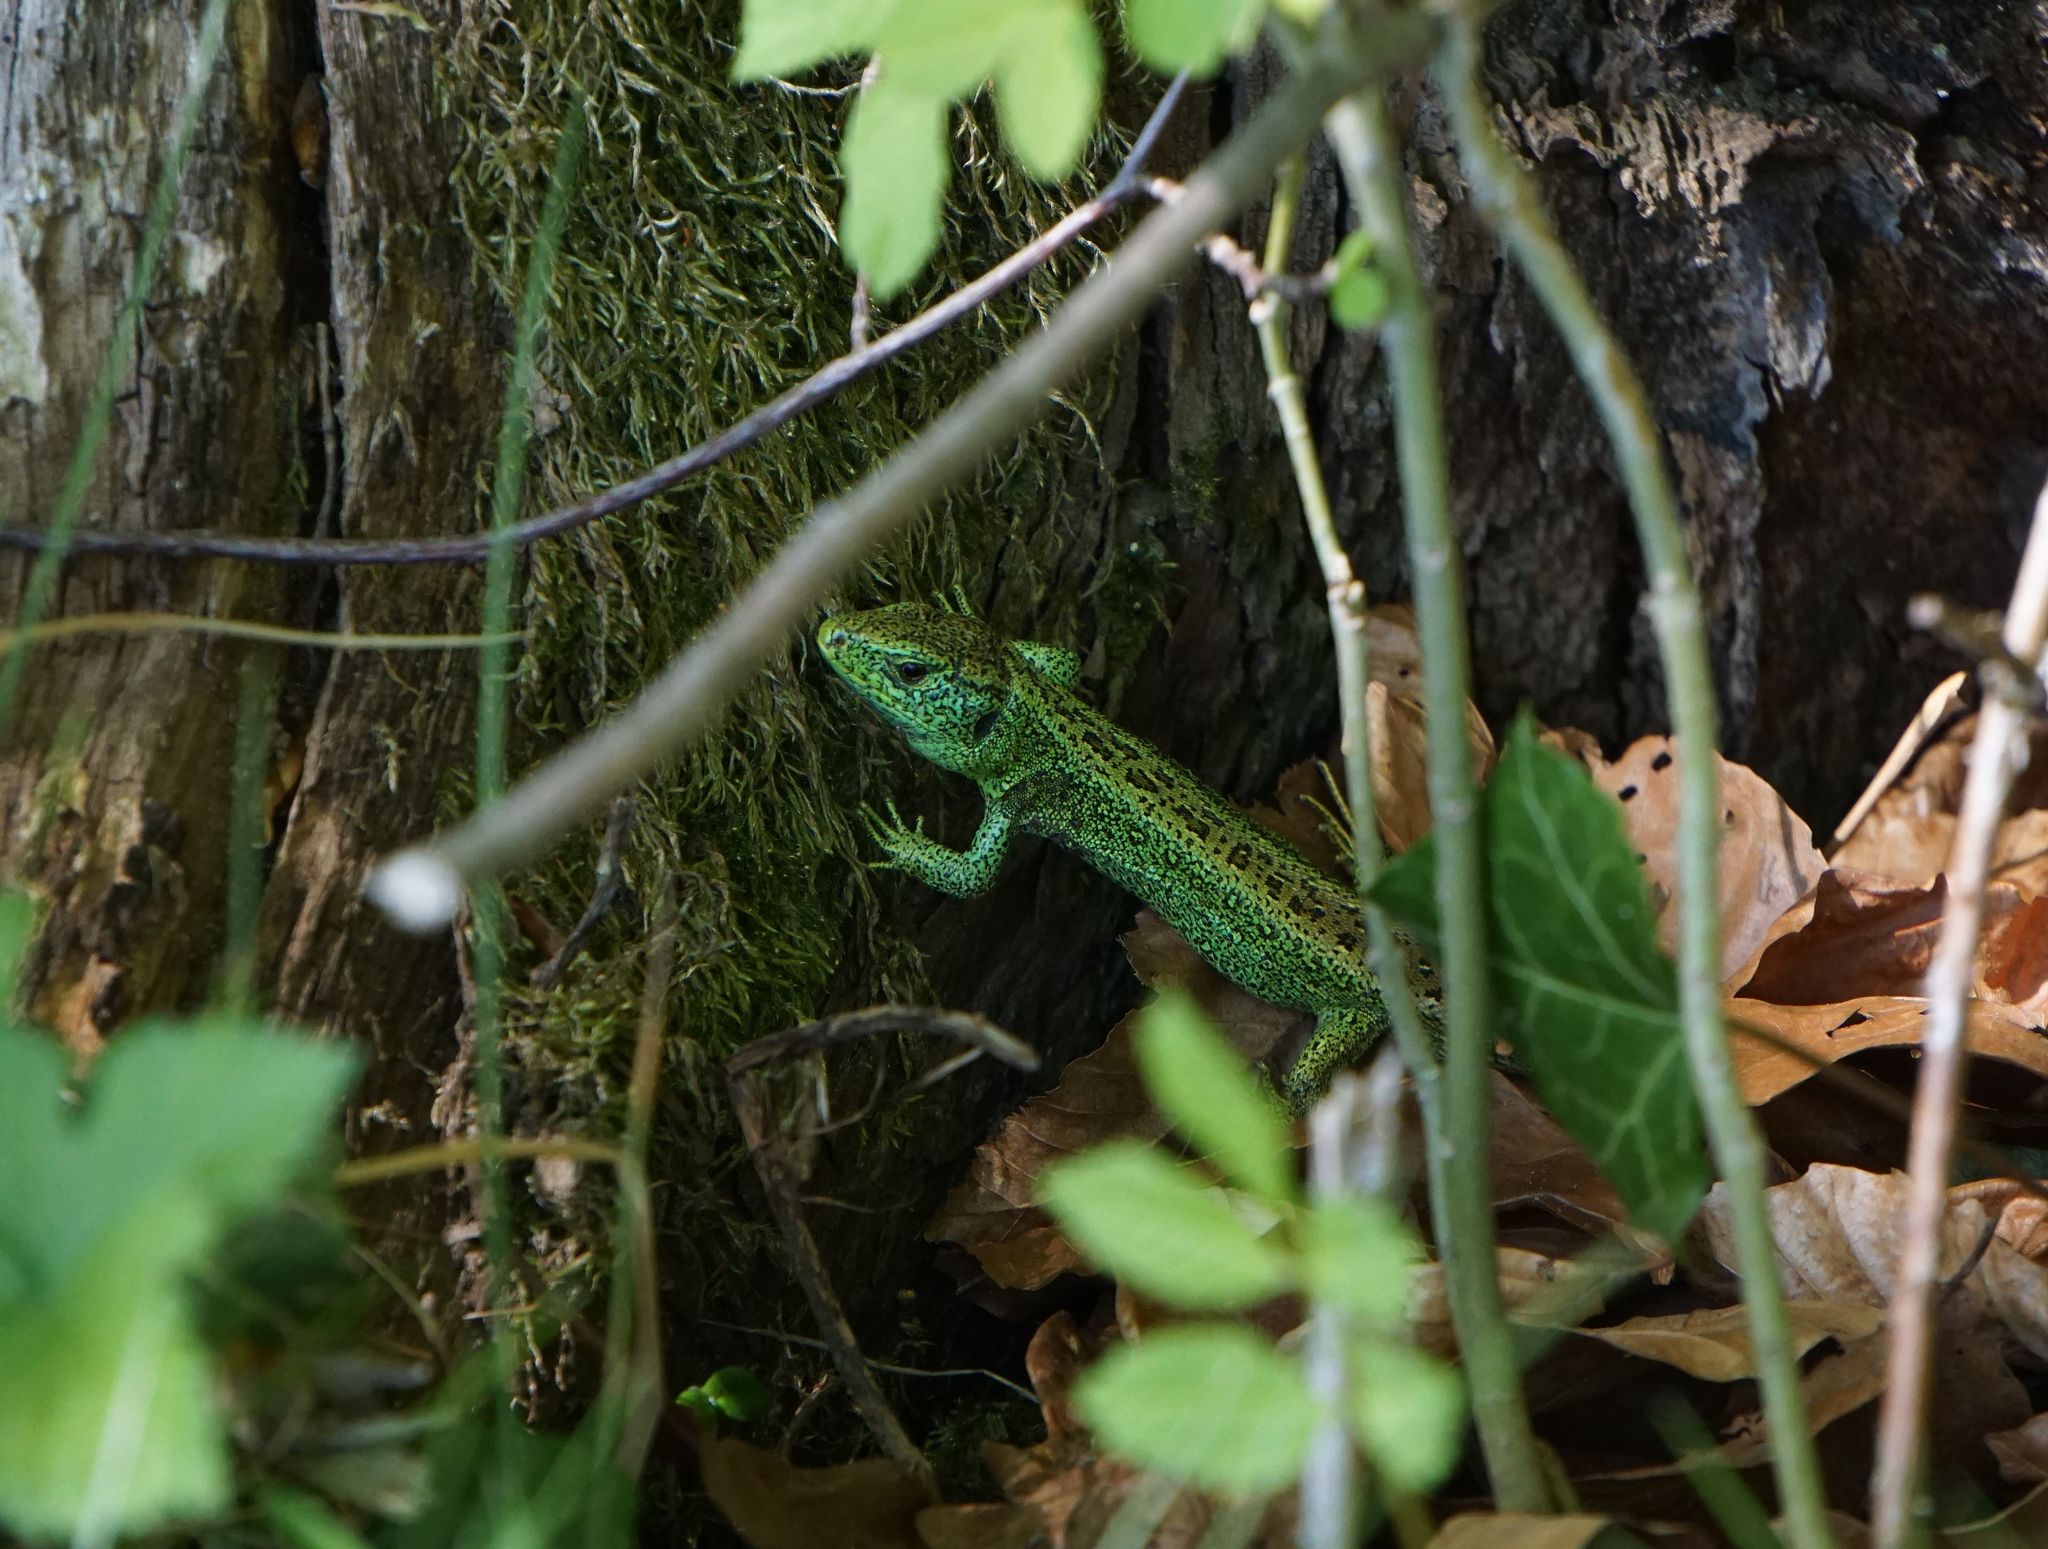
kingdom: Animalia
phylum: Chordata
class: Squamata
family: Lacertidae
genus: Lacerta
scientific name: Lacerta agilis
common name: Sand lizard
